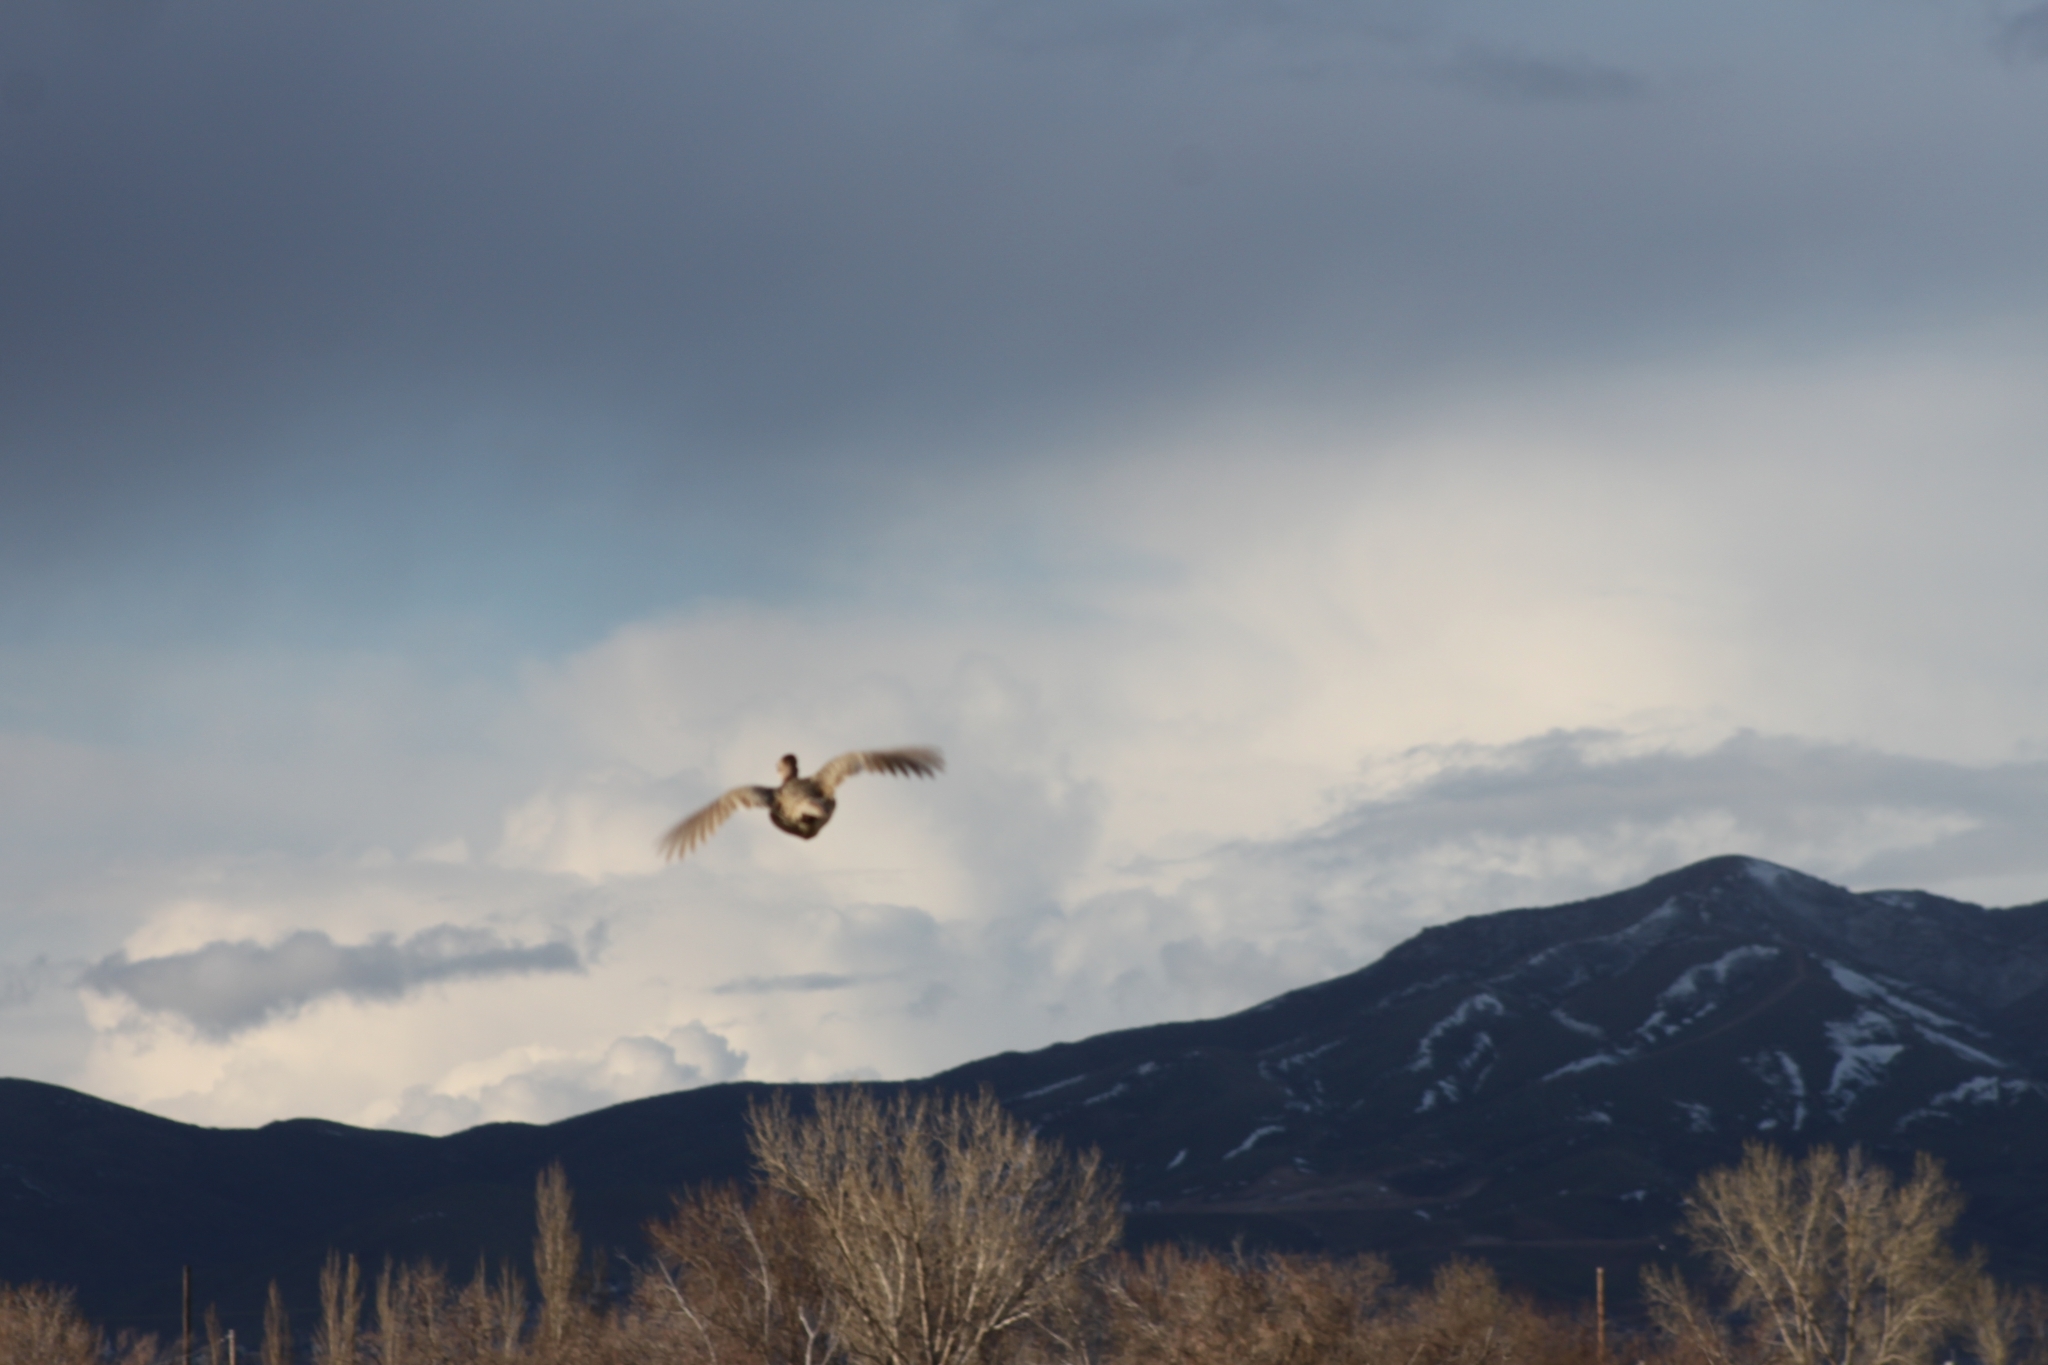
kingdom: Animalia
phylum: Chordata
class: Aves
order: Galliformes
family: Phasianidae
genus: Phasianus
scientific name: Phasianus colchicus
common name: Common pheasant
